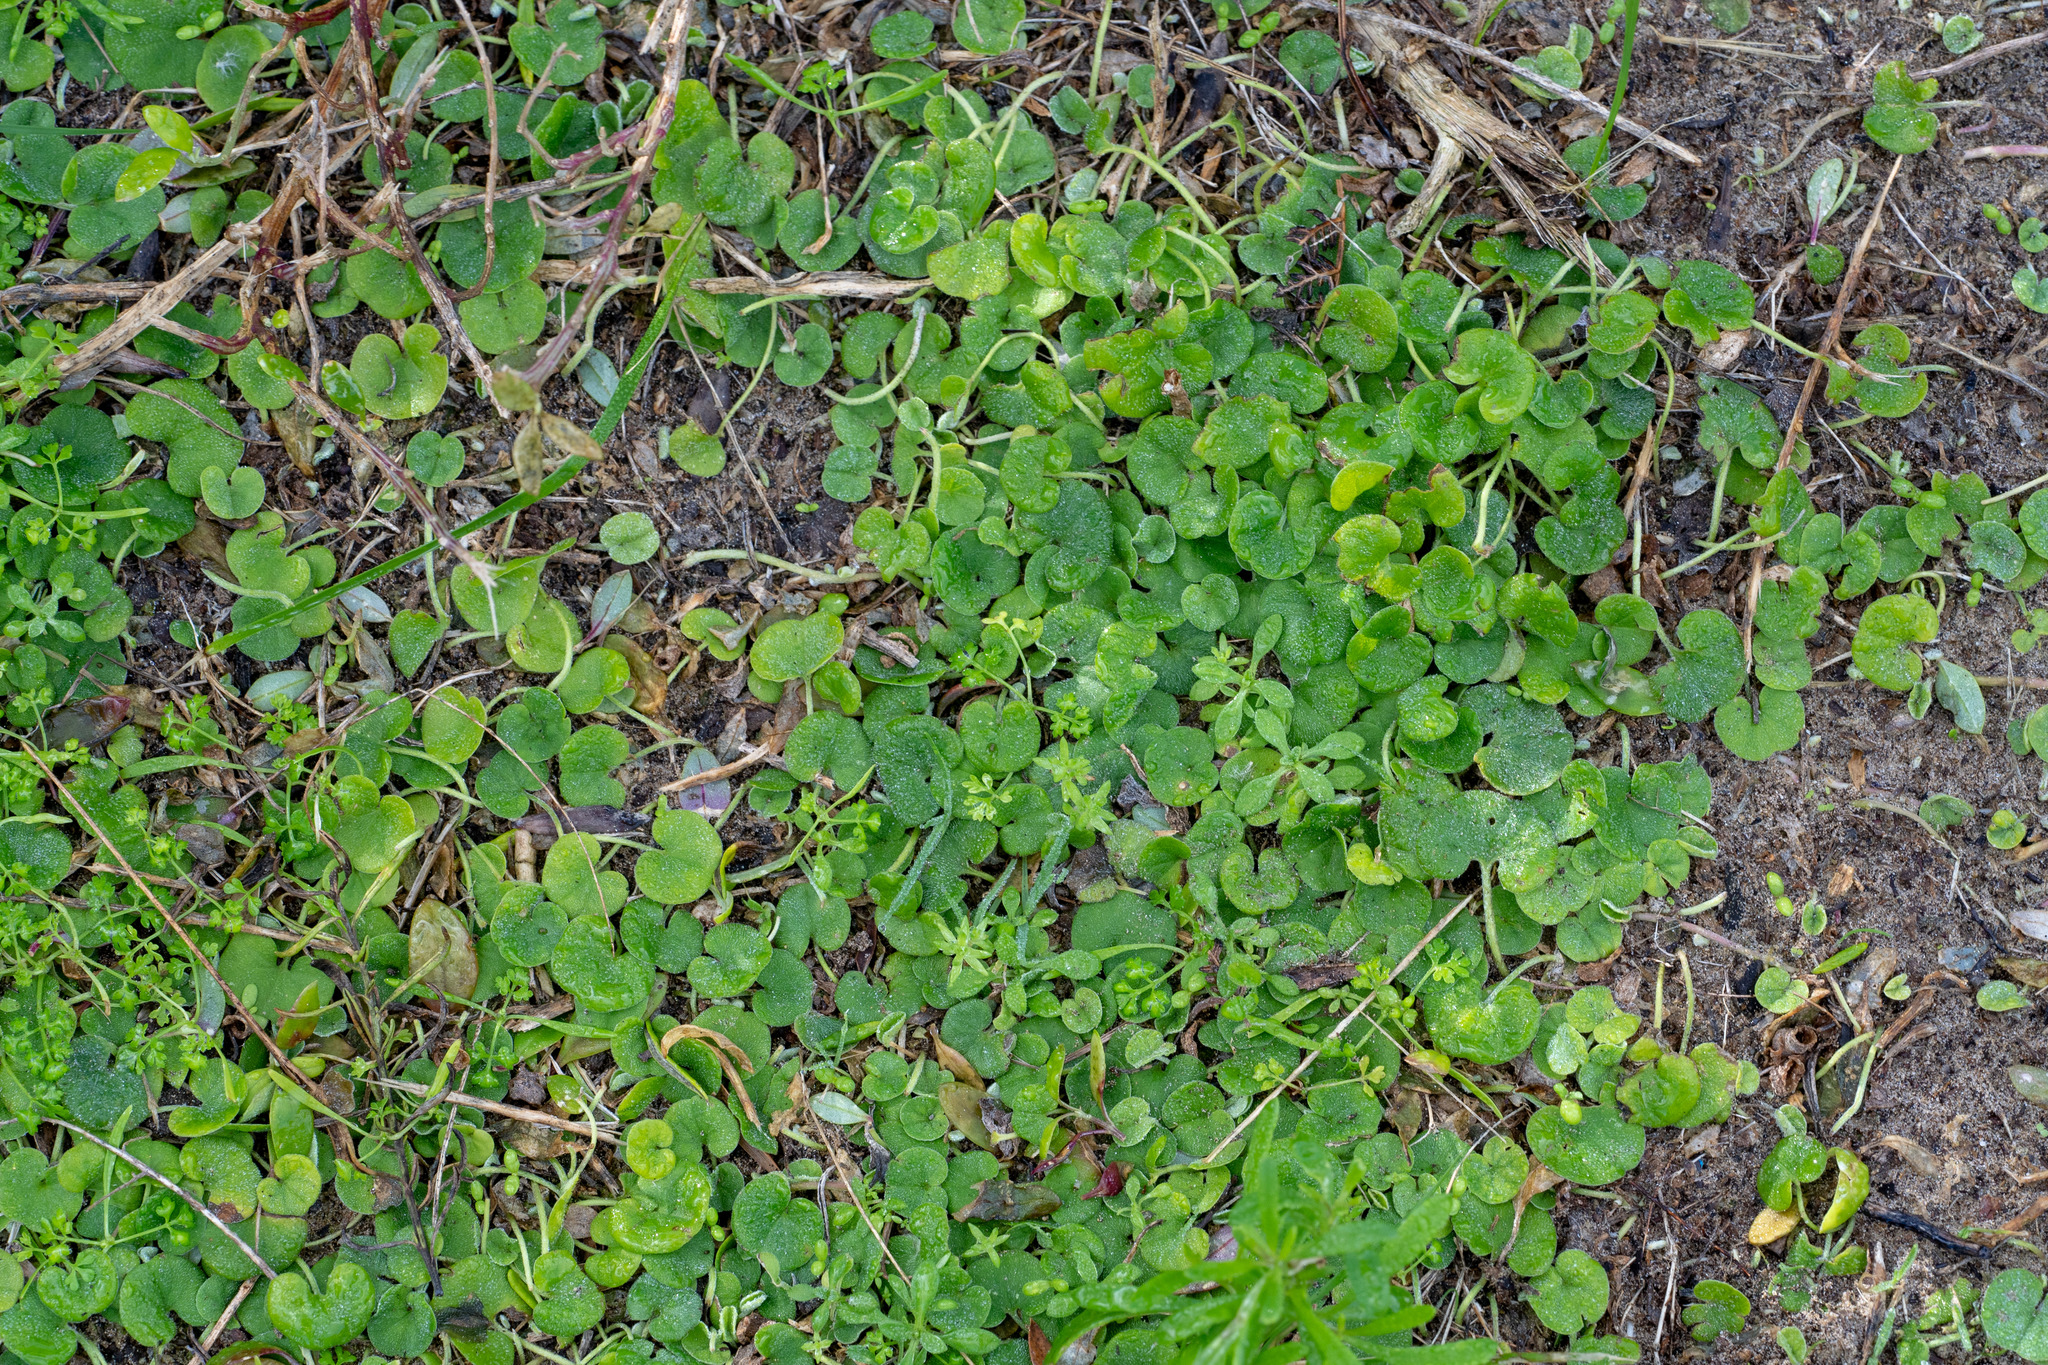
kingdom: Plantae
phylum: Tracheophyta
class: Magnoliopsida
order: Solanales
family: Convolvulaceae
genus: Dichondra
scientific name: Dichondra repens
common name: Kidneyweed
